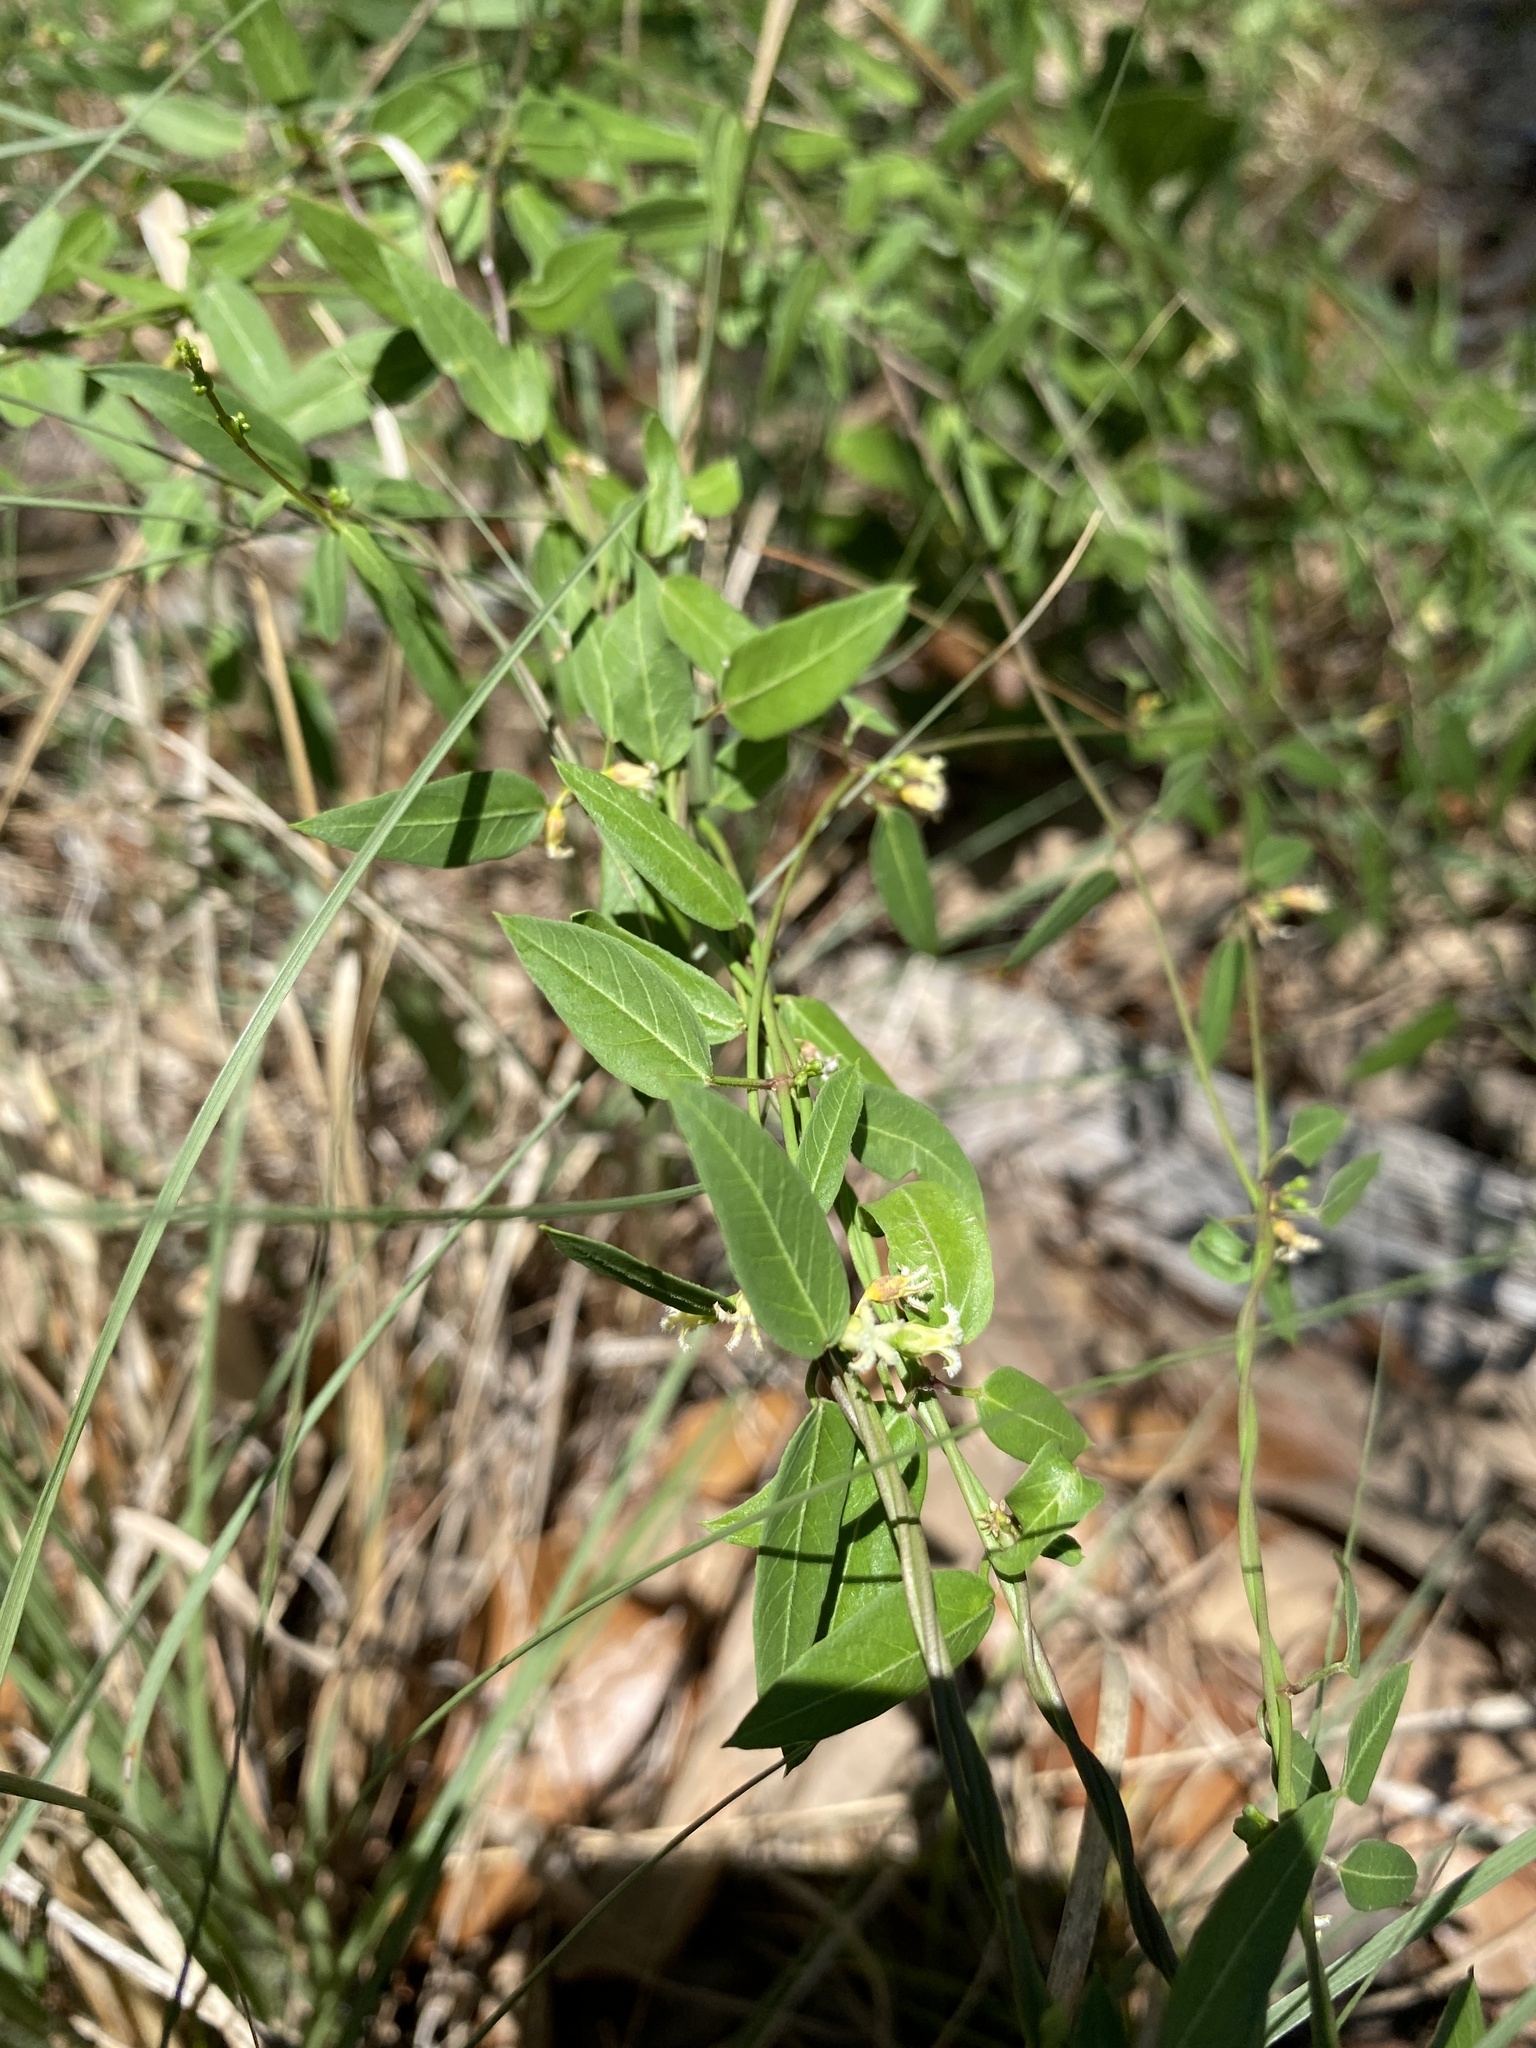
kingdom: Plantae
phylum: Tracheophyta
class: Magnoliopsida
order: Gentianales
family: Apocynaceae
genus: Metastelma
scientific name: Metastelma barbigerum
